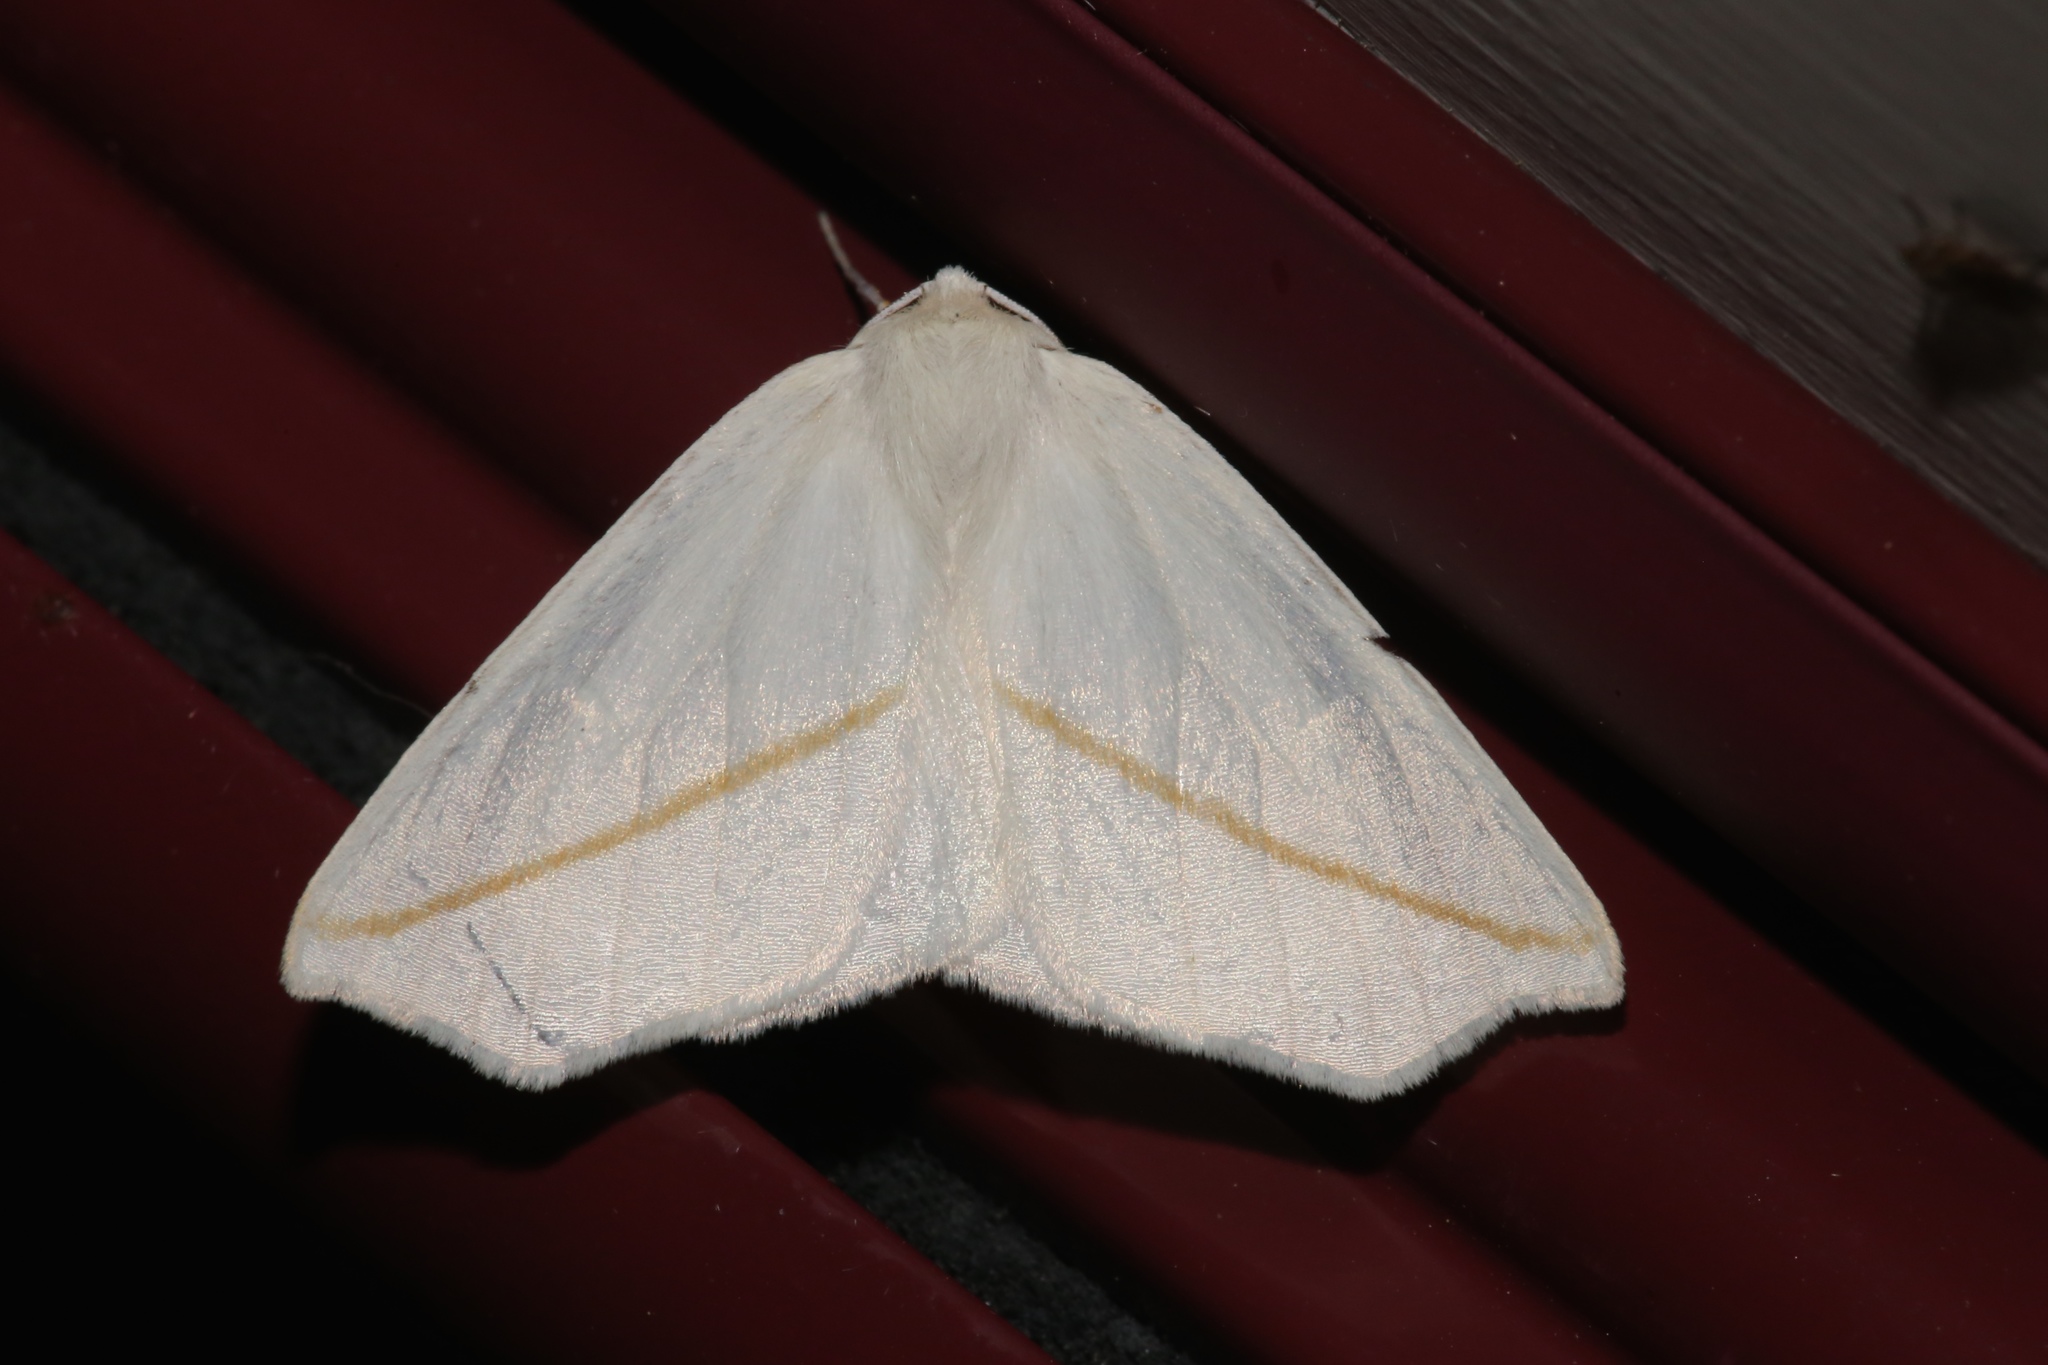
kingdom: Animalia
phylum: Arthropoda
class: Insecta
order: Lepidoptera
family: Geometridae
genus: Tetracis
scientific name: Tetracis cachexiata
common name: White slant-line
